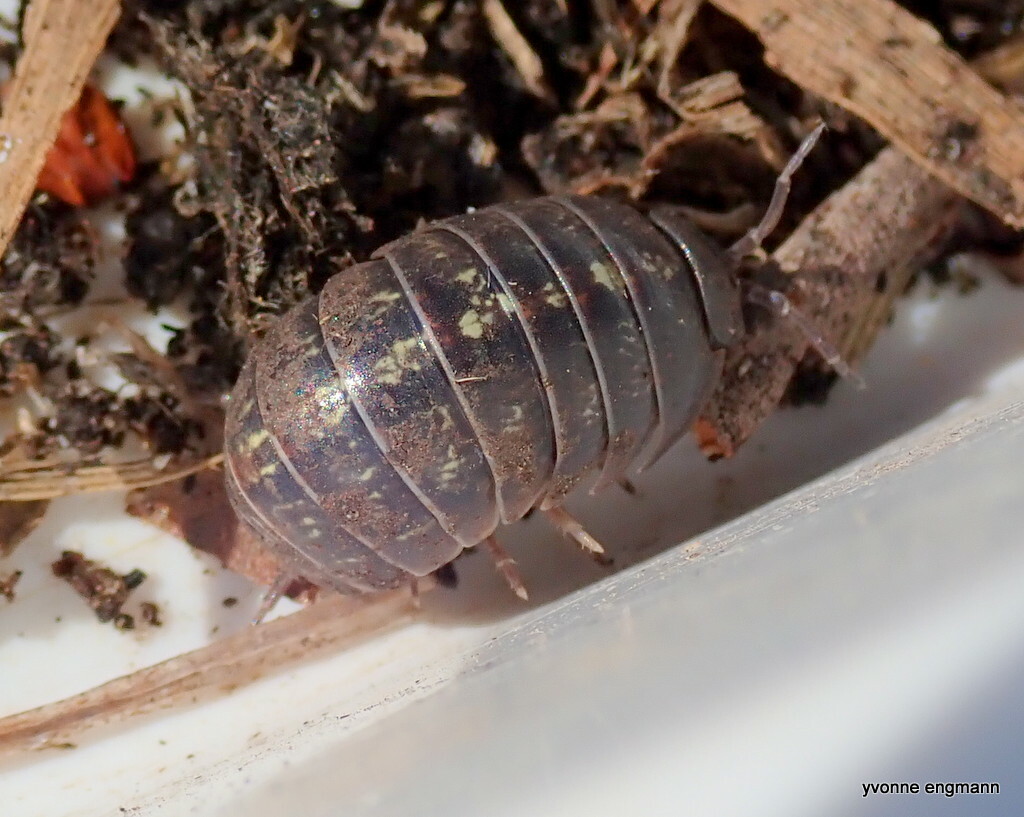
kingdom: Animalia
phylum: Arthropoda
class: Malacostraca
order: Isopoda
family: Armadillidiidae
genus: Armadillidium
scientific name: Armadillidium vulgare
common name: Common pill woodlouse
